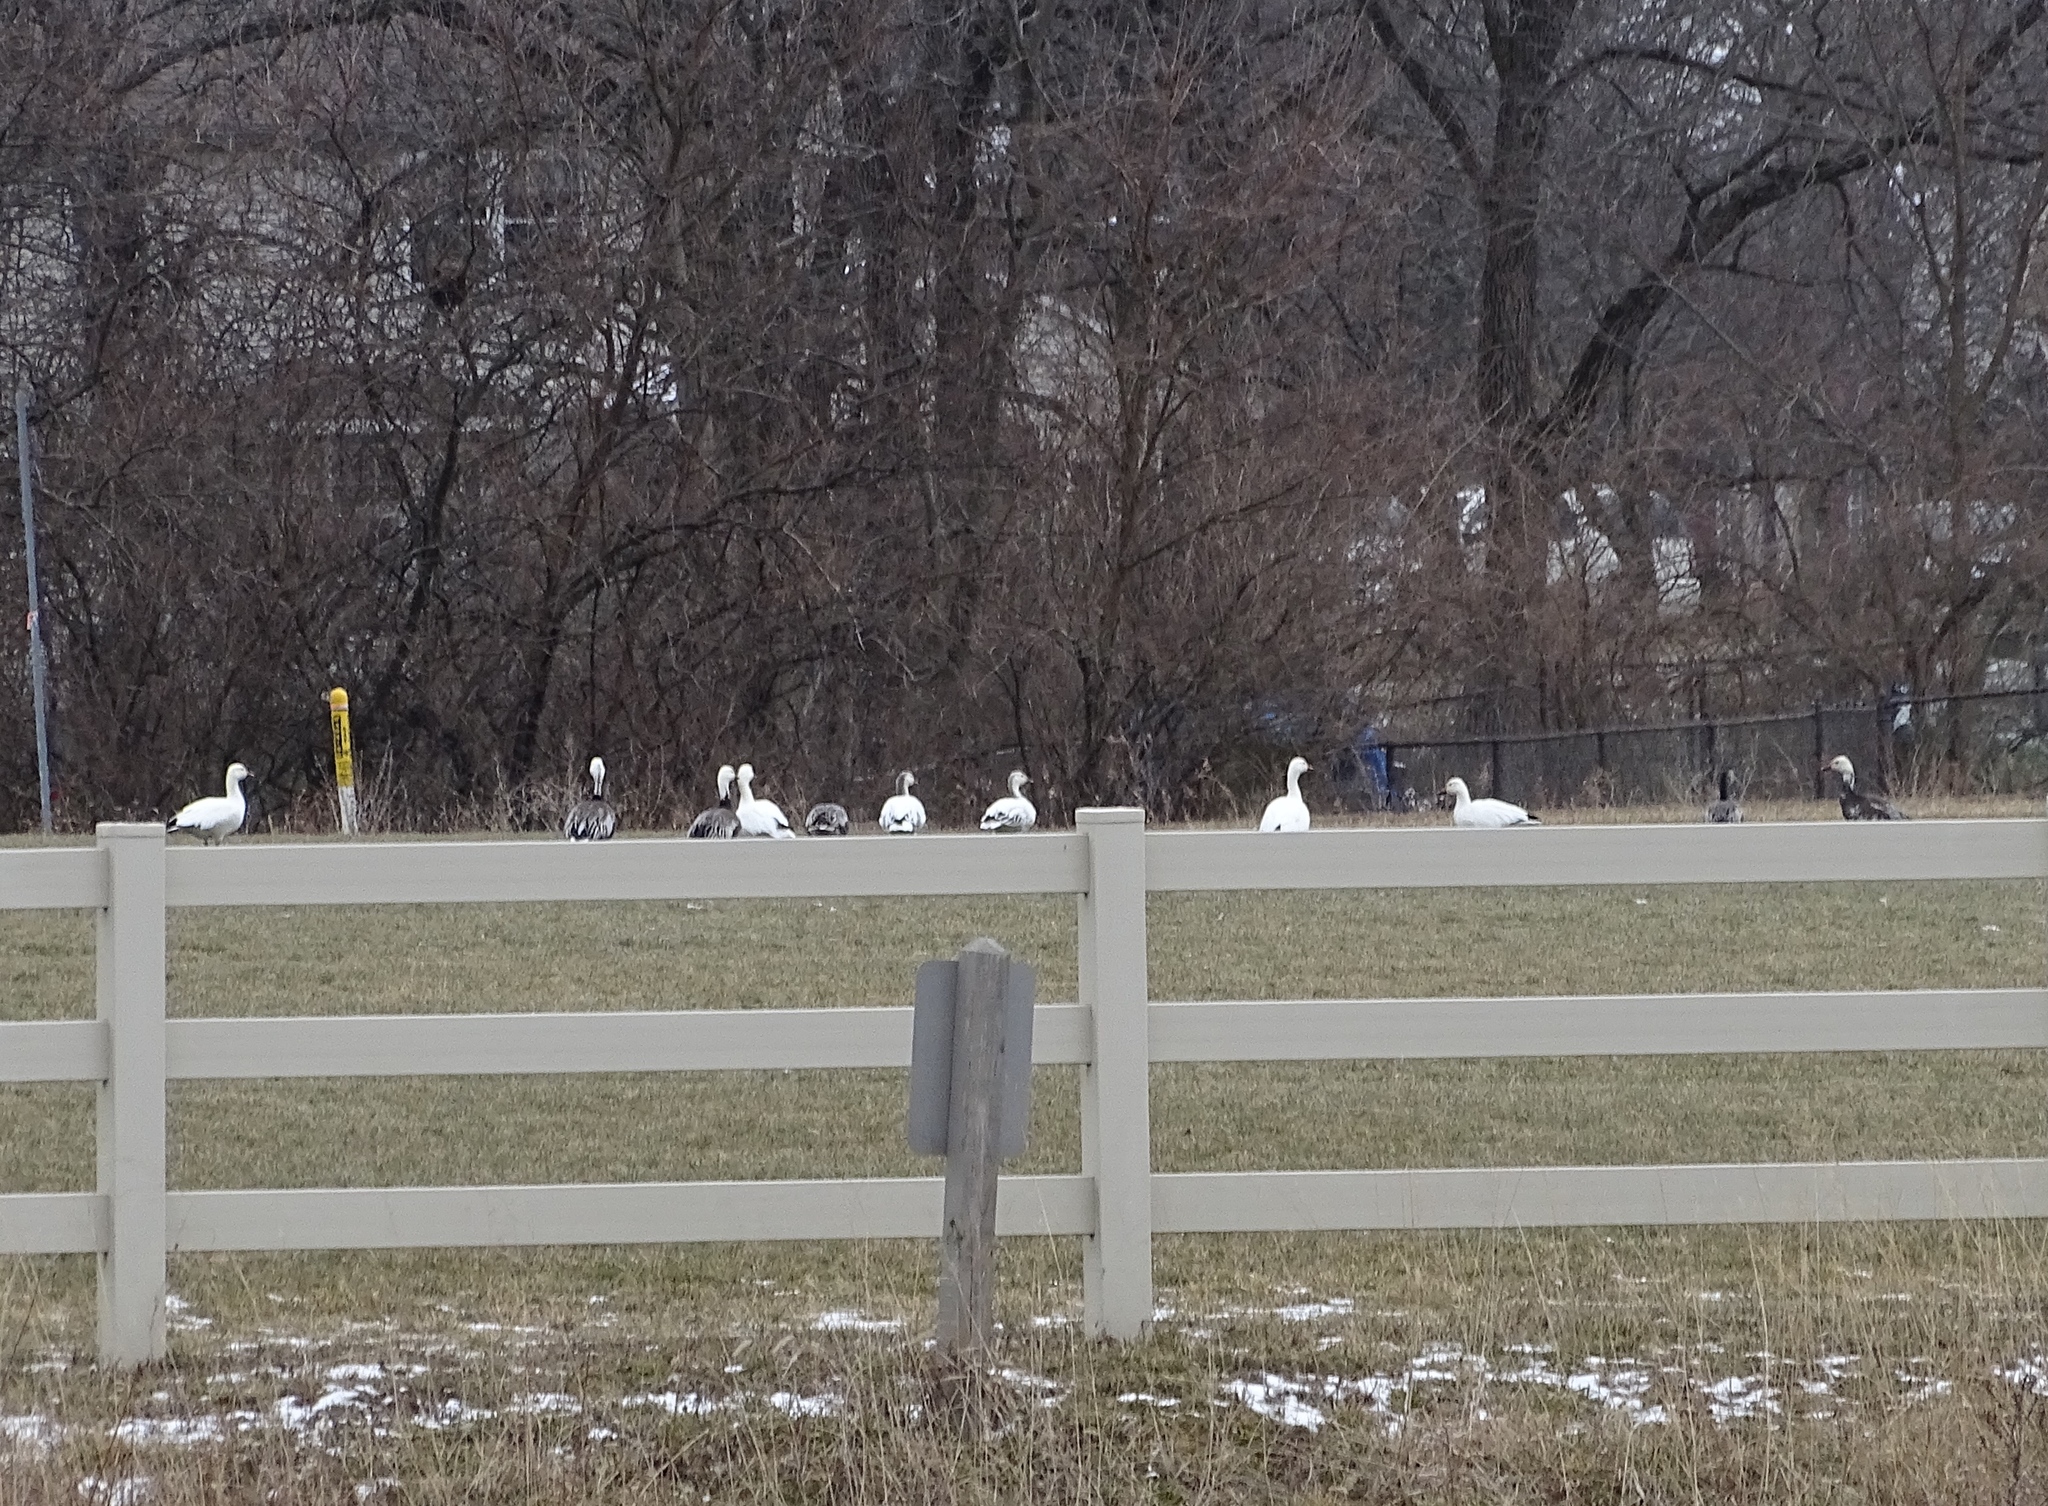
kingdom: Animalia
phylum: Chordata
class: Aves
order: Anseriformes
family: Anatidae
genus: Anser
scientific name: Anser caerulescens
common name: Snow goose
